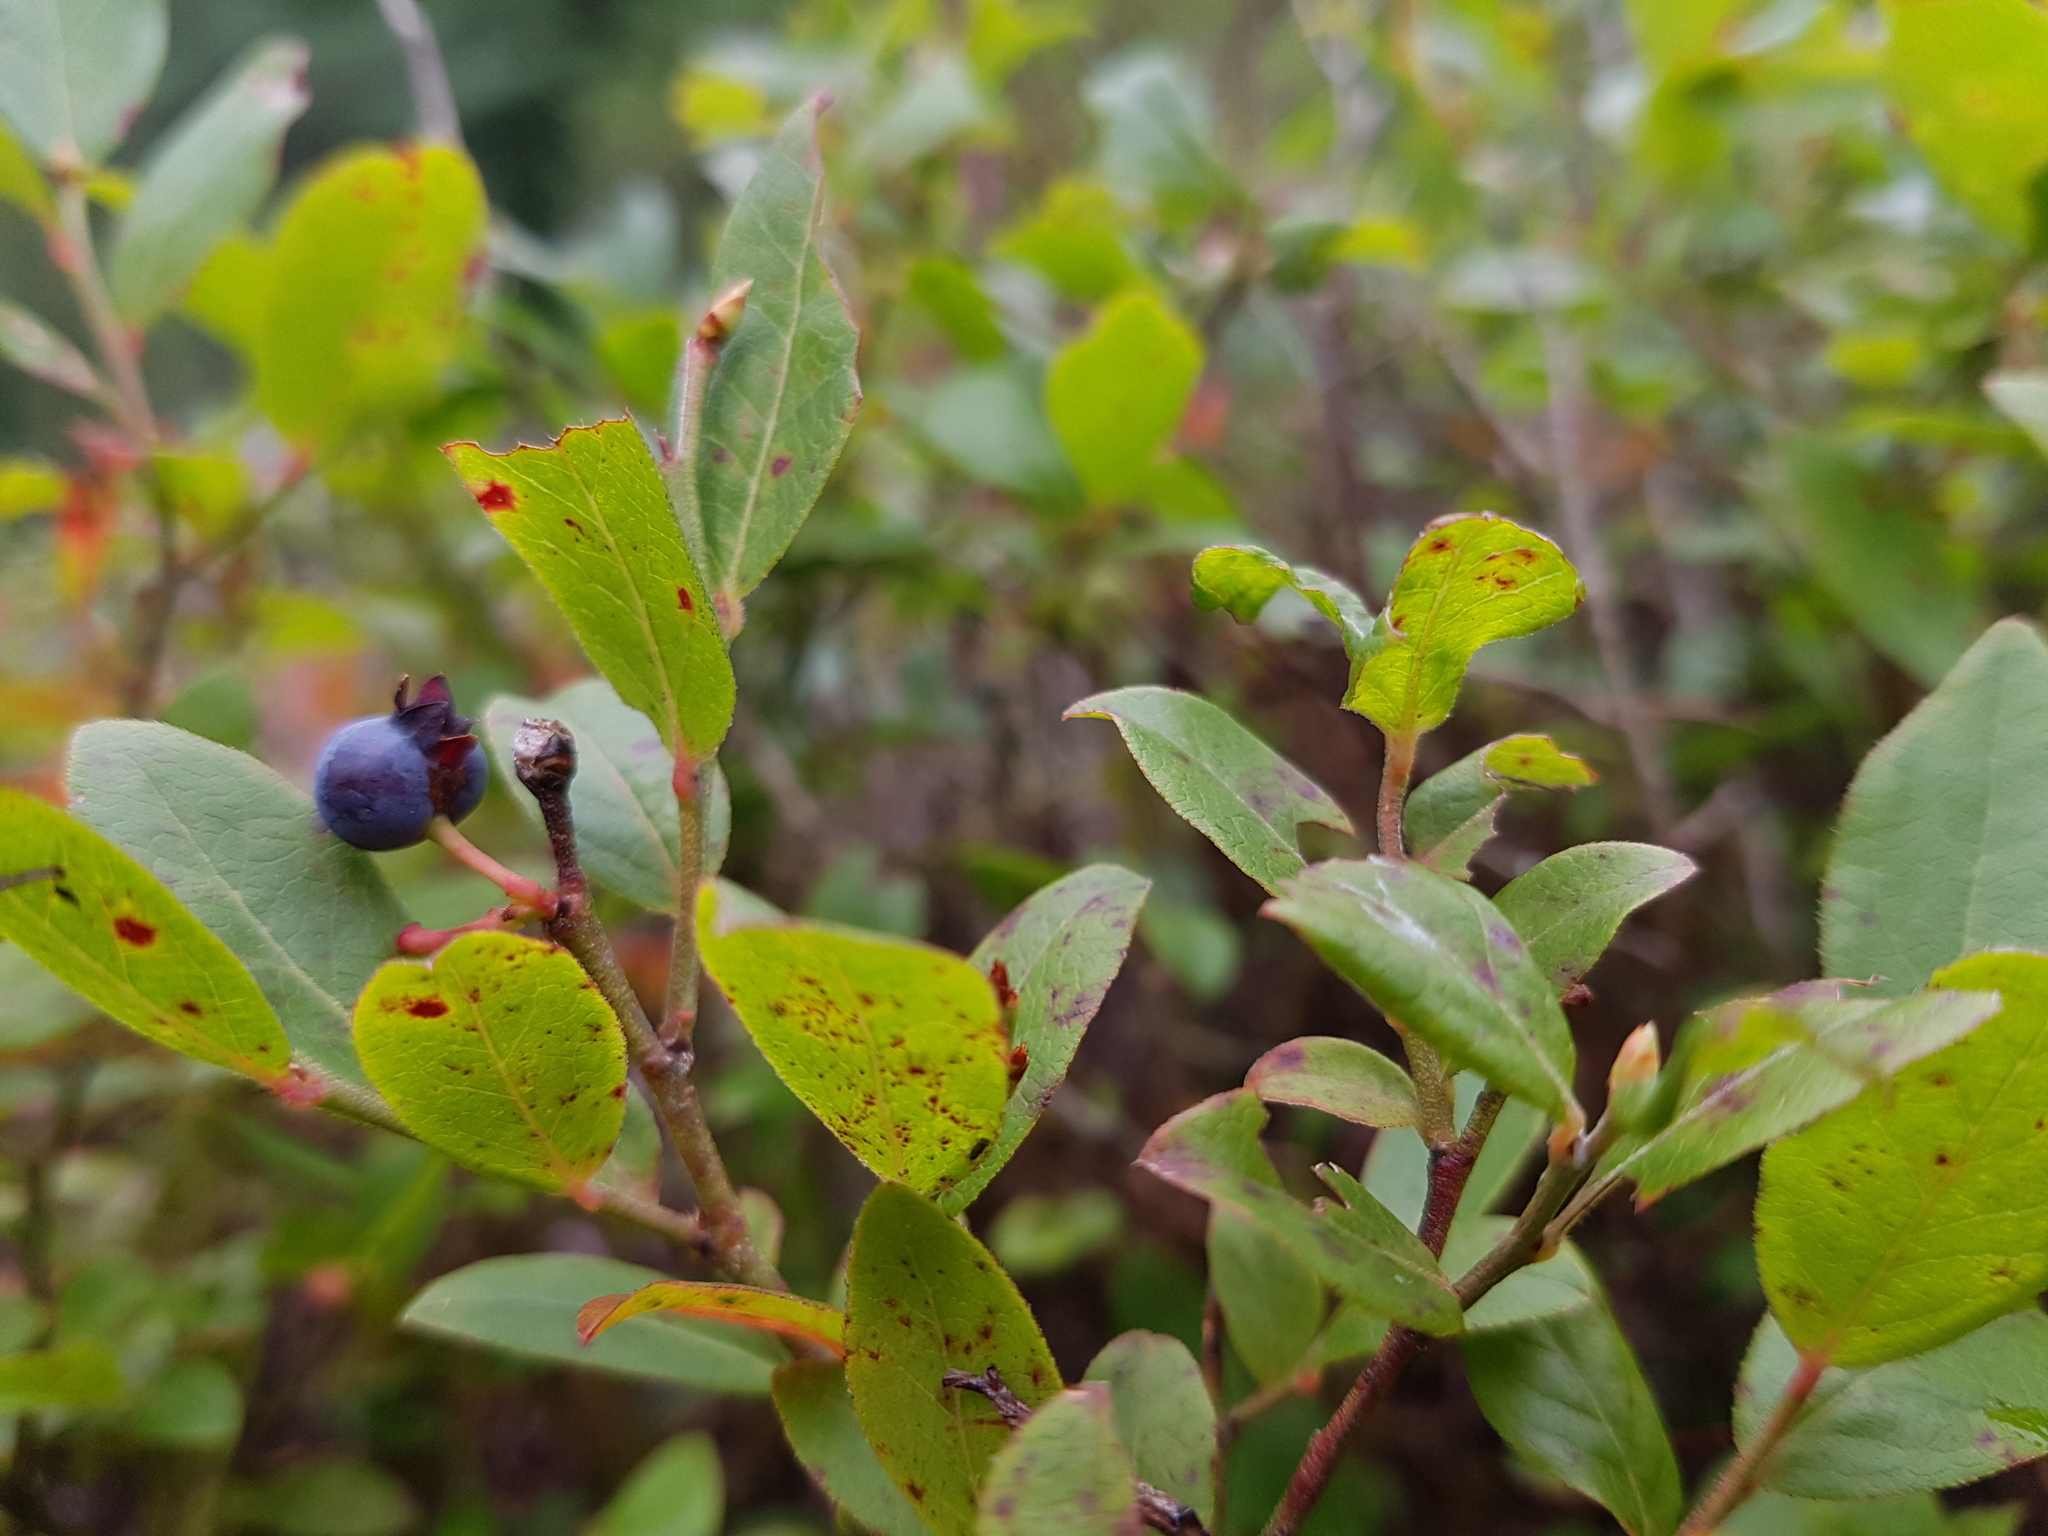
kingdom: Plantae
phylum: Tracheophyta
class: Magnoliopsida
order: Ericales
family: Ericaceae
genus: Vaccinium
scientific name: Vaccinium angustifolium
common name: Early lowbush blueberry
